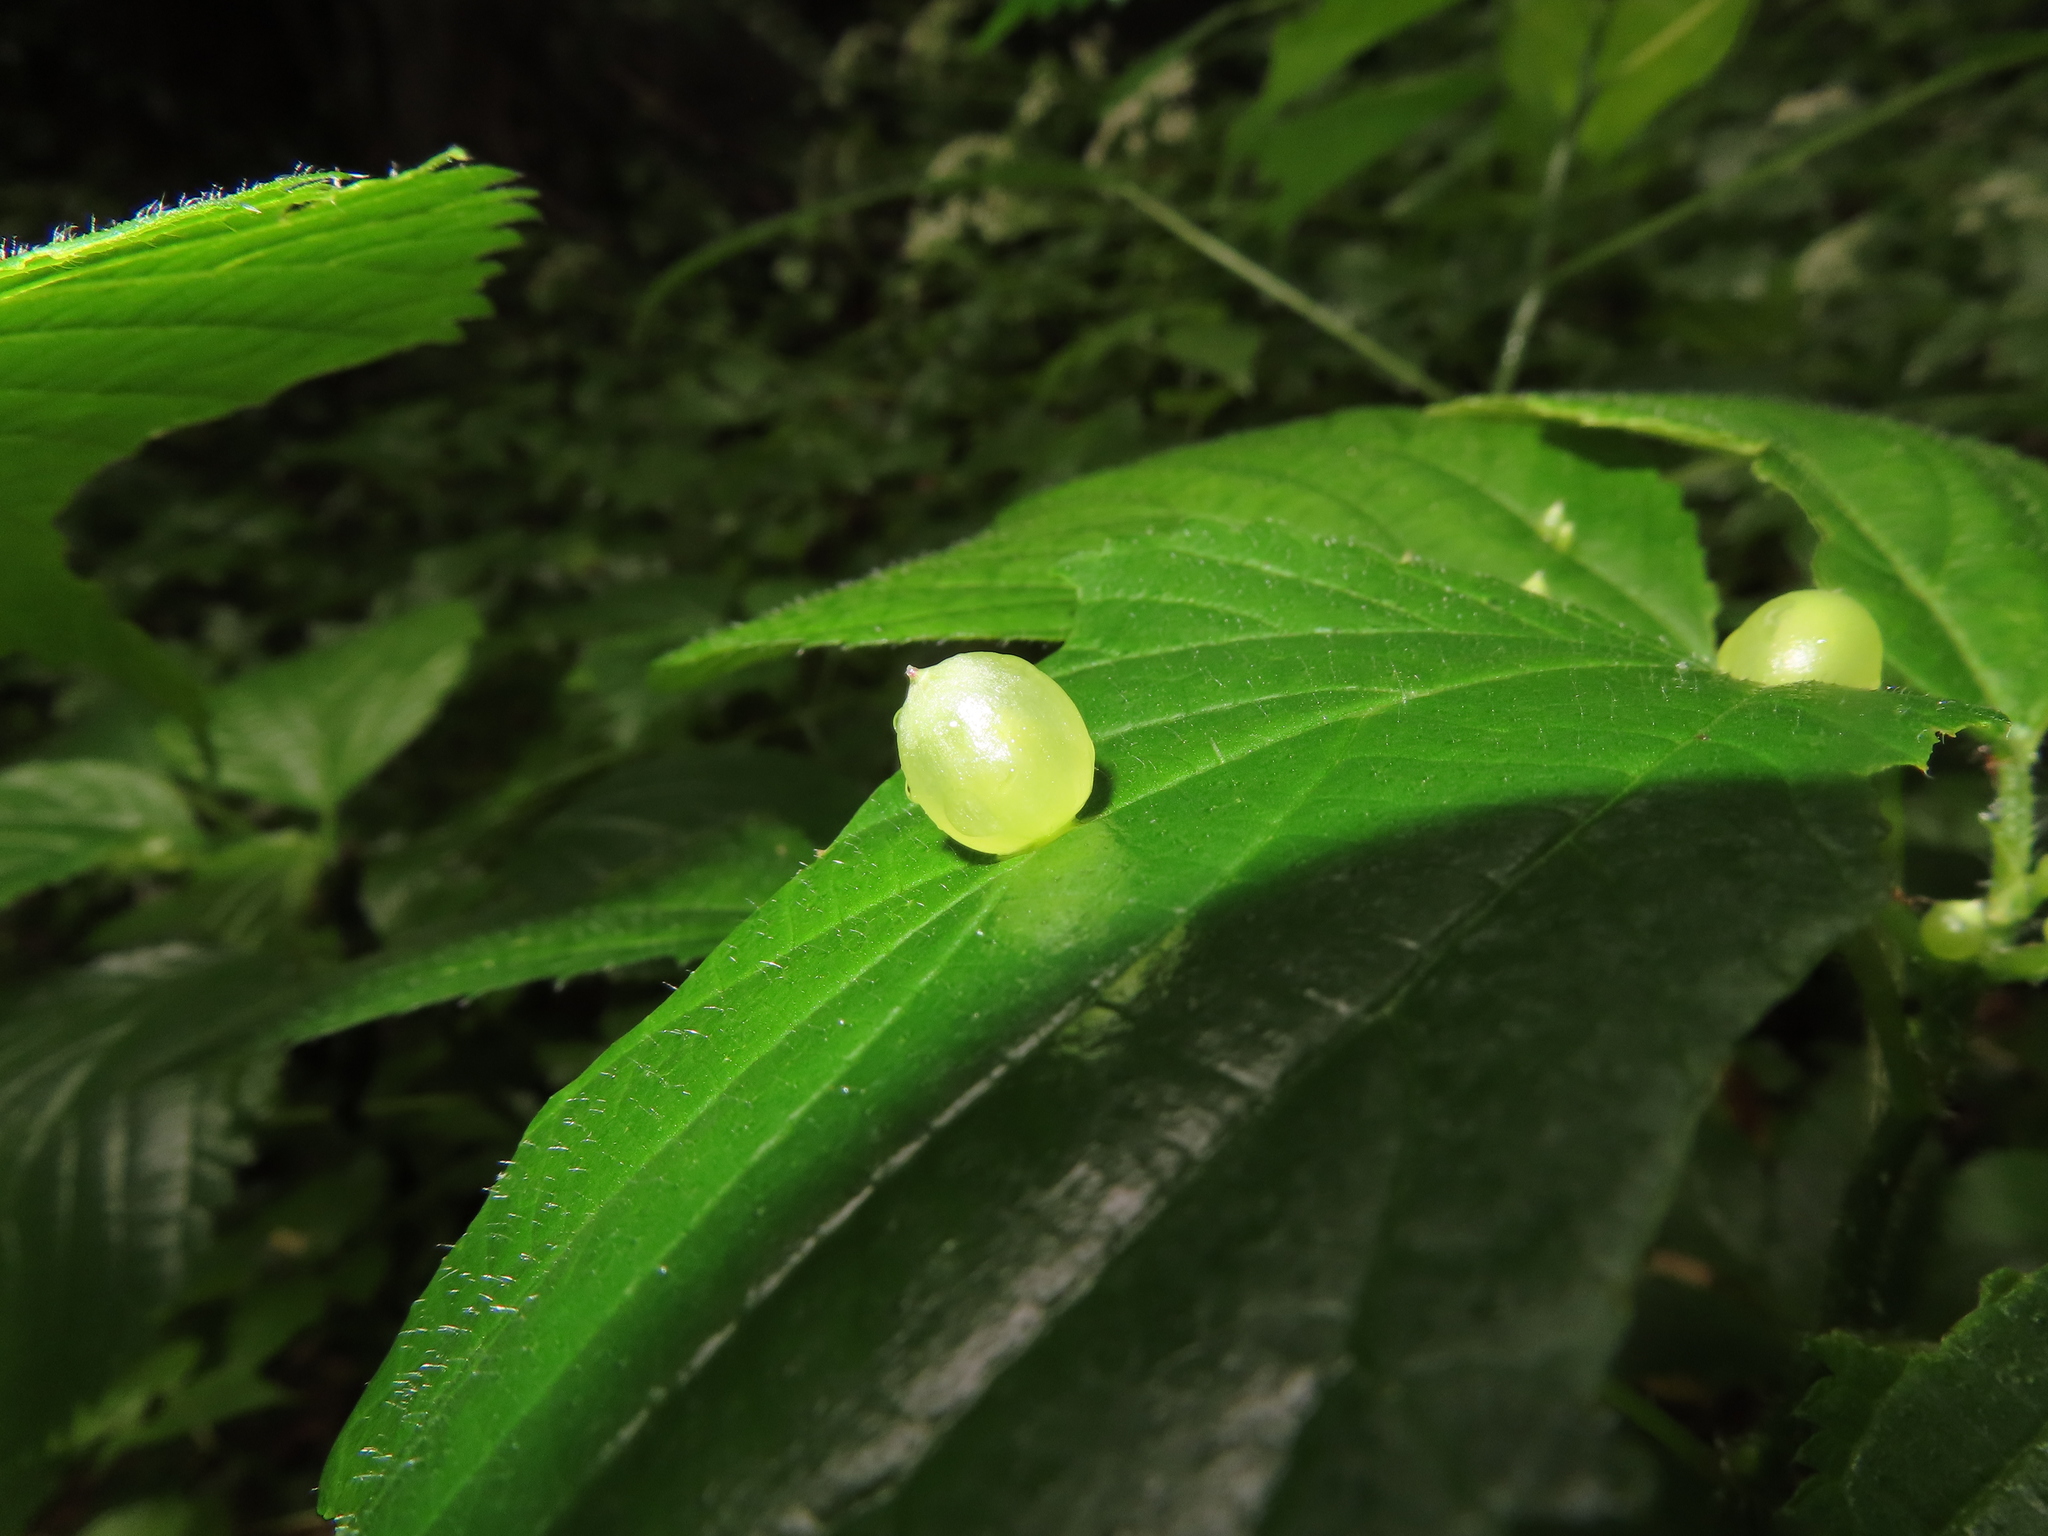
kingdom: Animalia
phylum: Arthropoda
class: Insecta
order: Diptera
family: Cecidomyiidae
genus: Dasineura
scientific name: Dasineura investita
